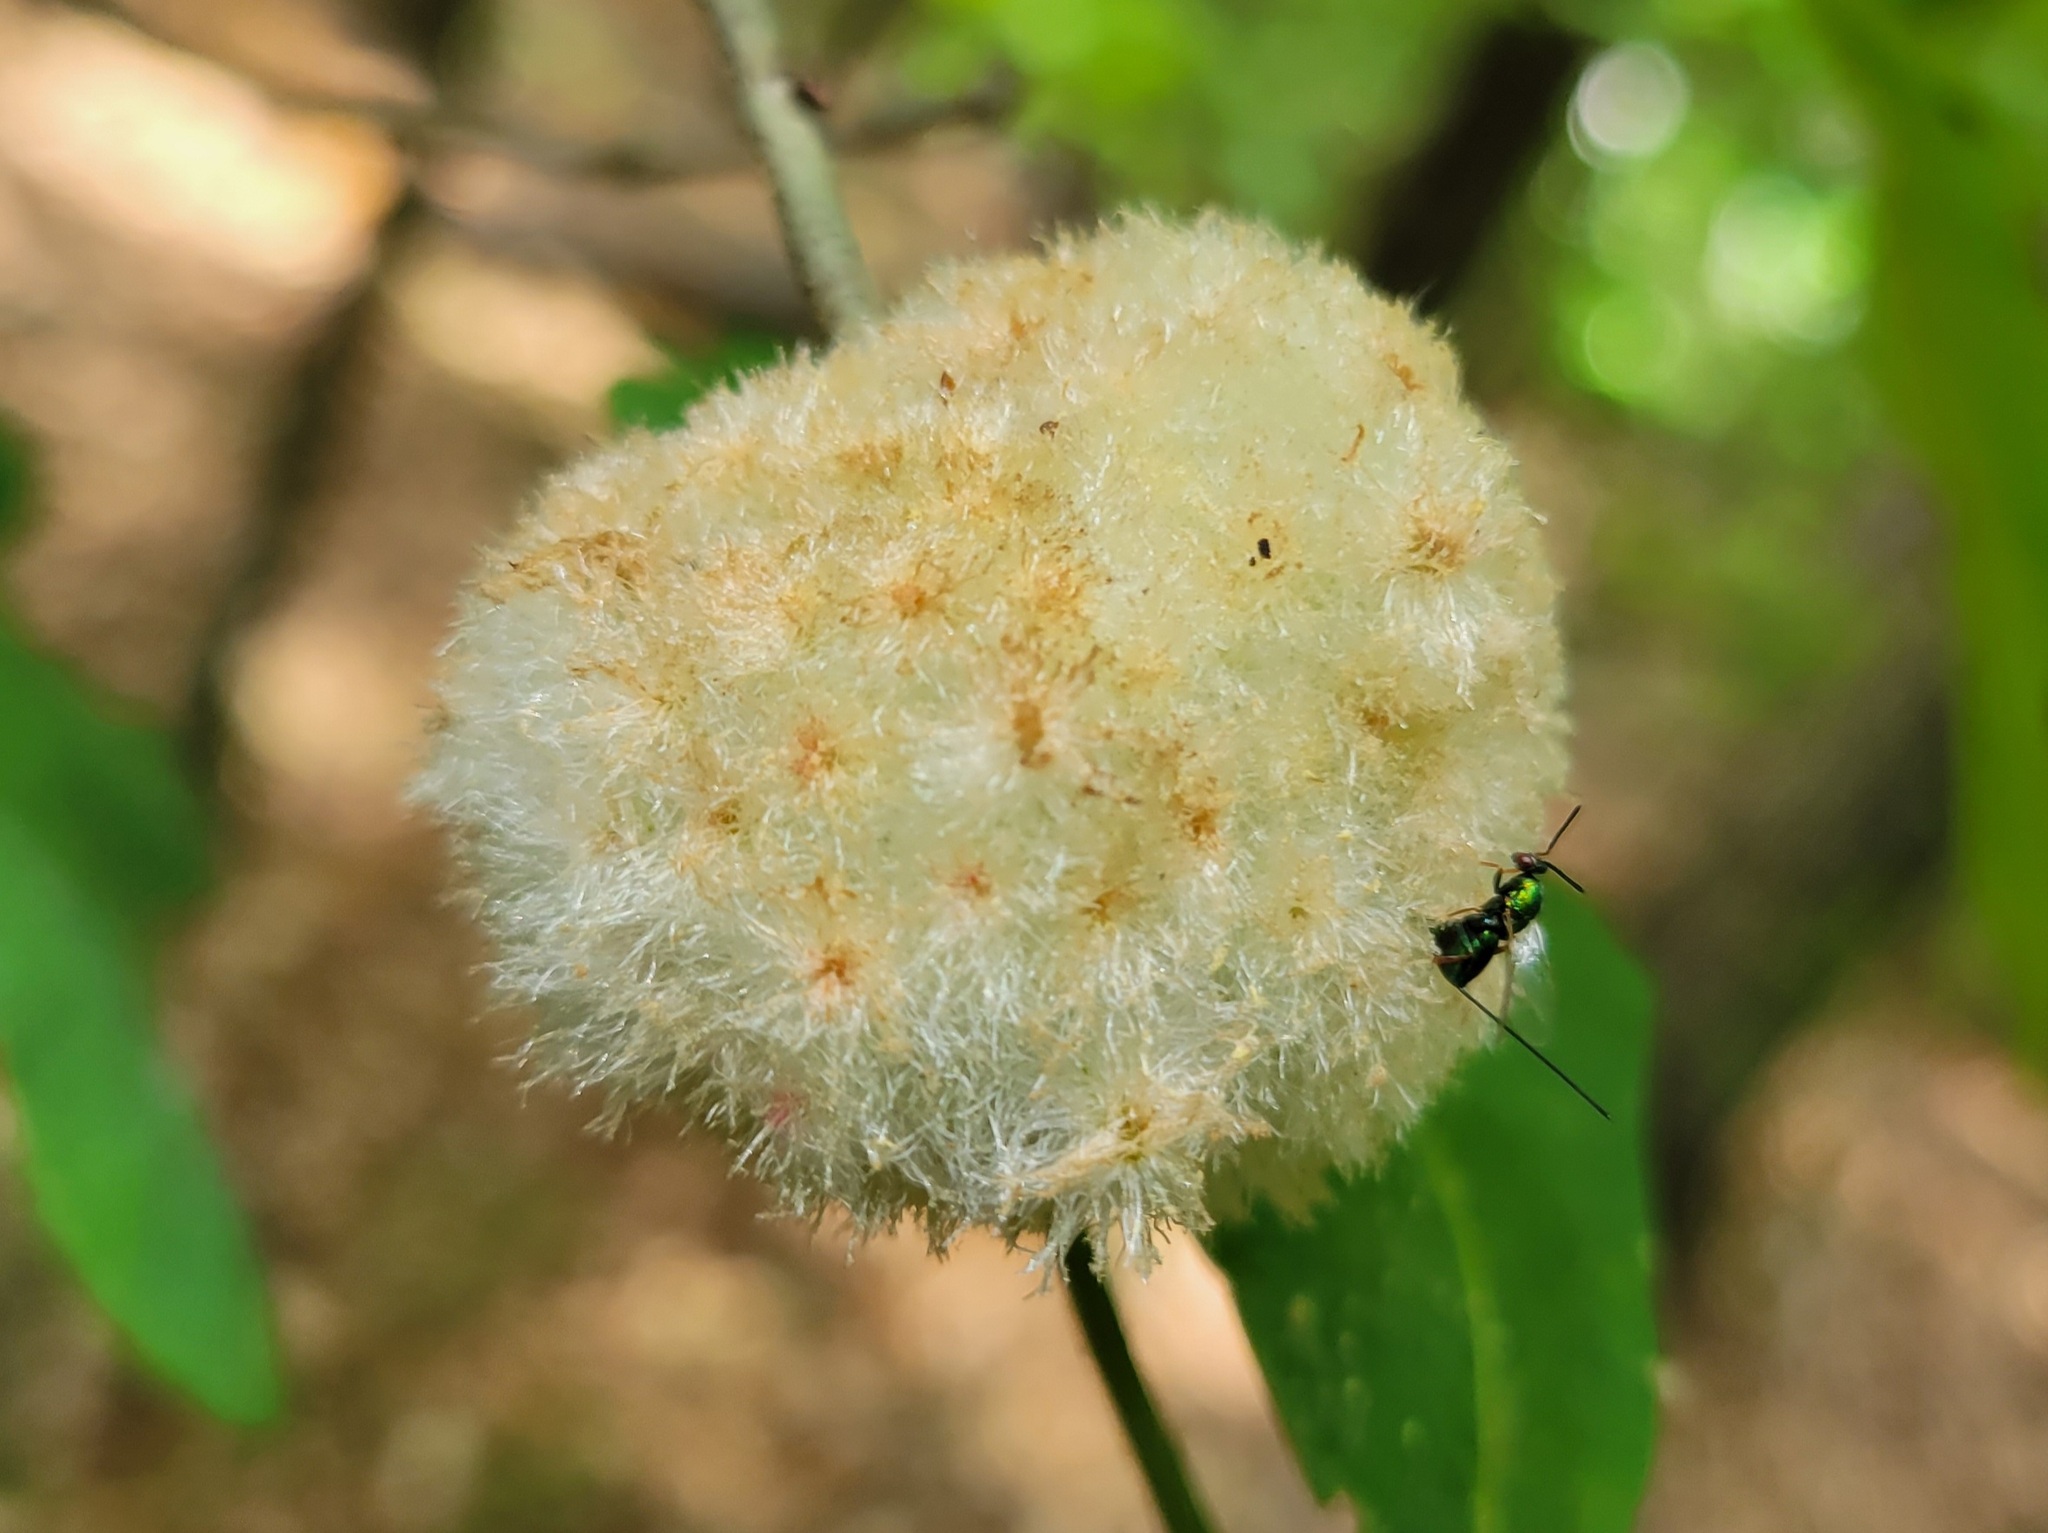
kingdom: Animalia
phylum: Arthropoda
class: Insecta
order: Hymenoptera
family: Cynipidae
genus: Callirhytis
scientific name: Callirhytis
